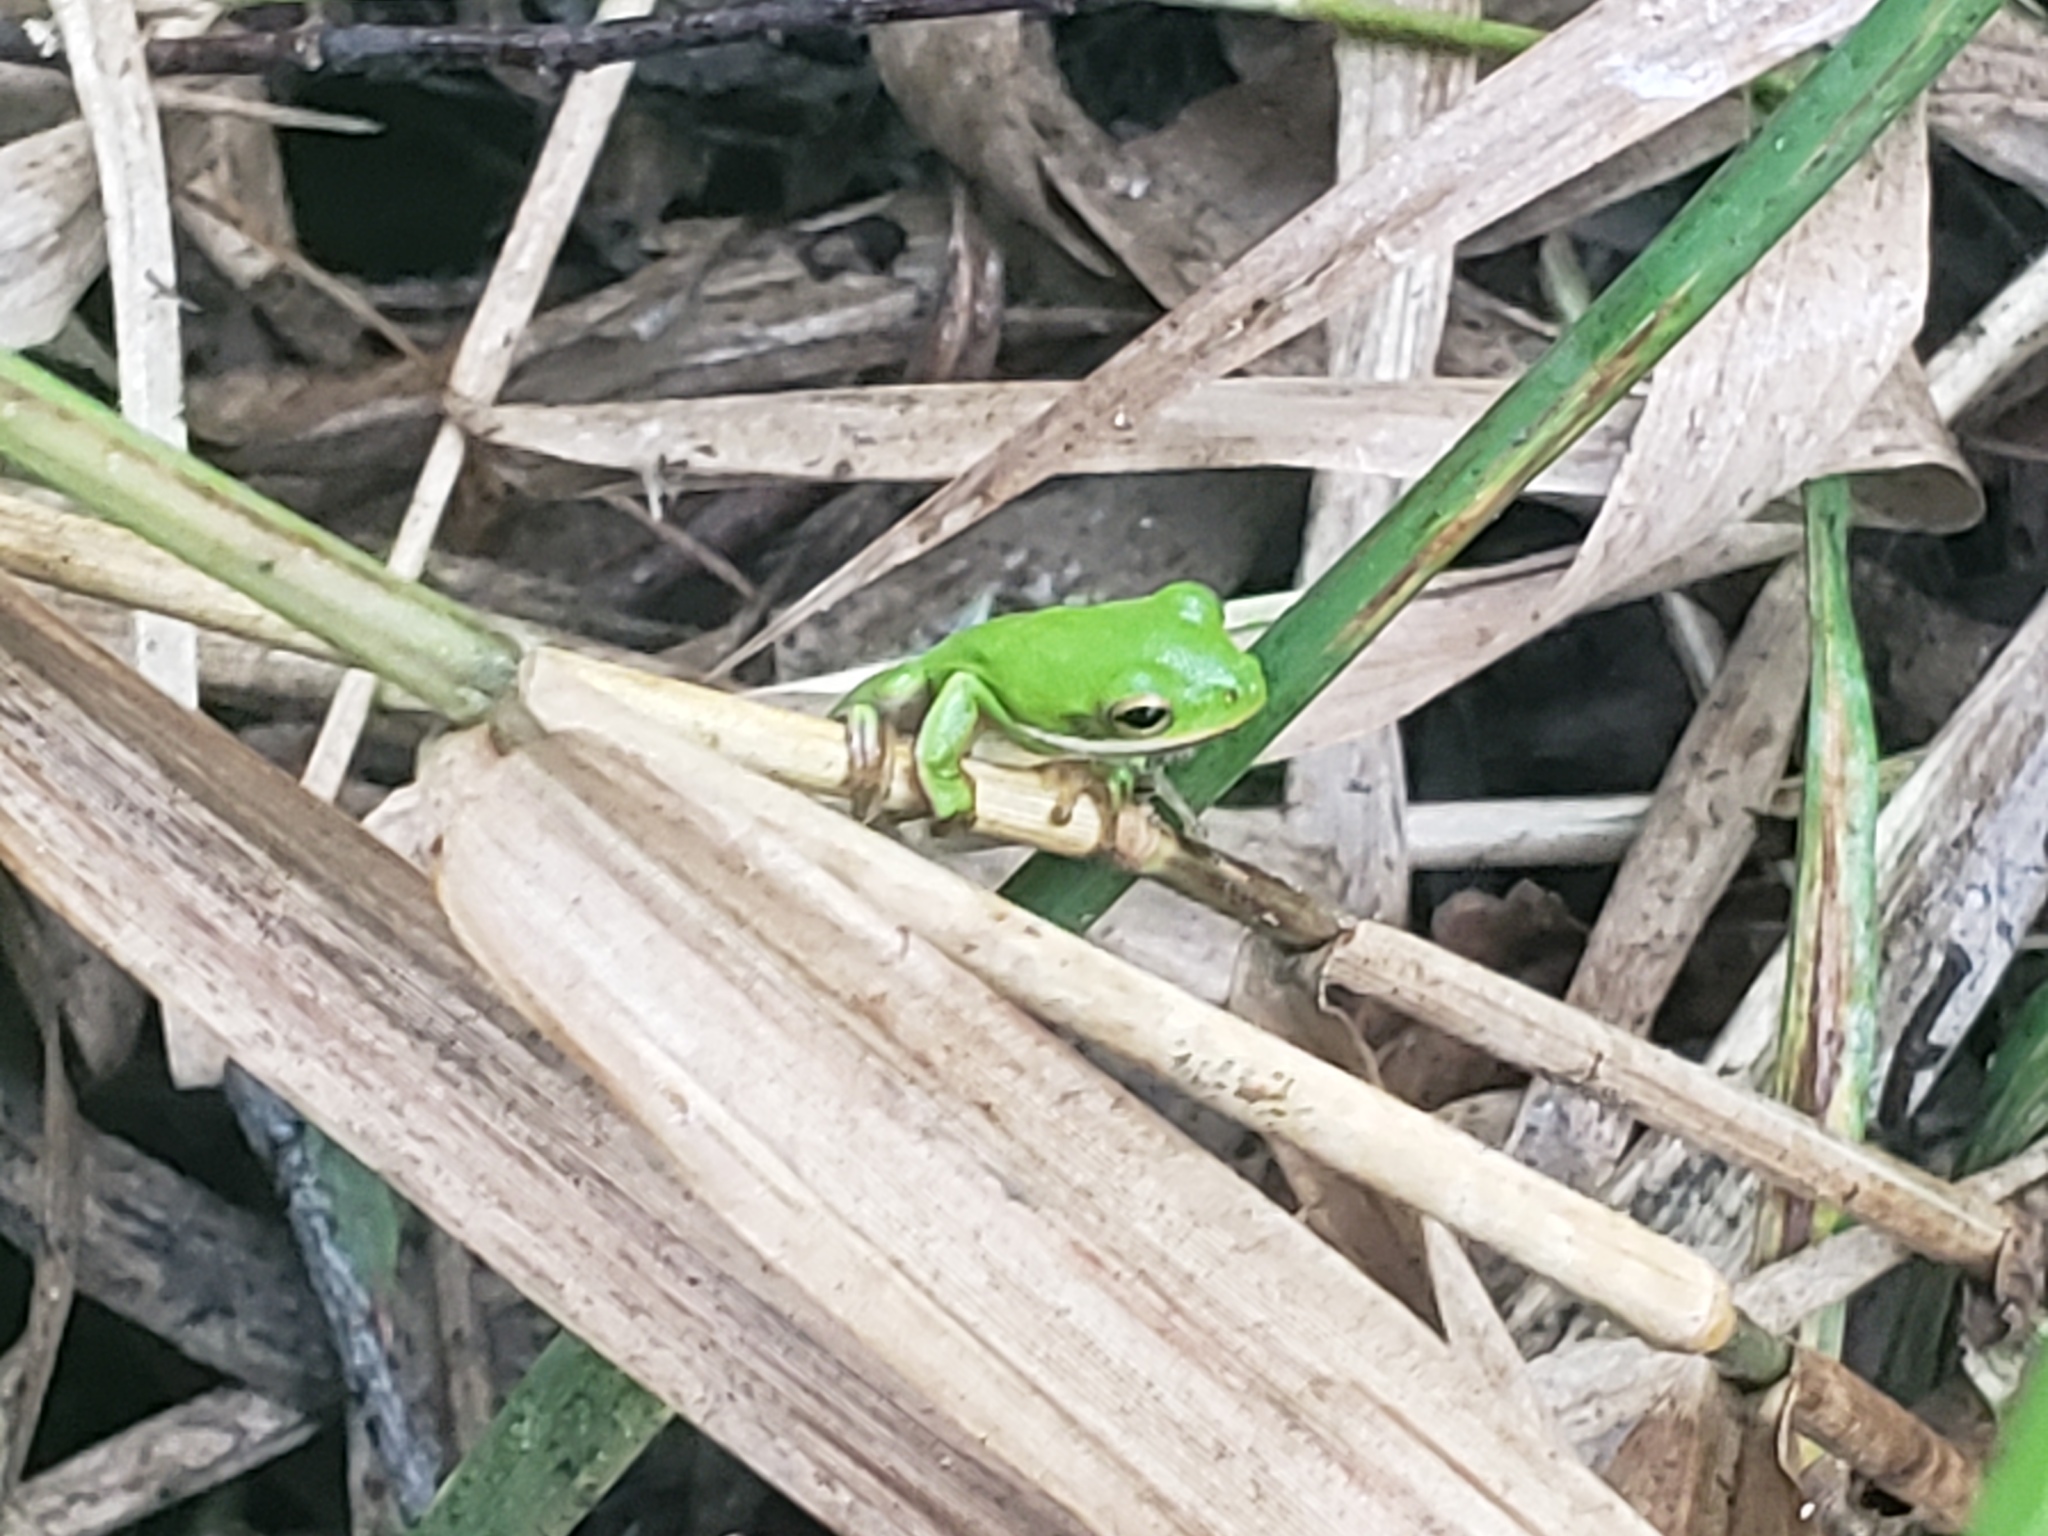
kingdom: Animalia
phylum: Chordata
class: Amphibia
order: Anura
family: Hylidae
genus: Dryophytes
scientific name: Dryophytes cinereus
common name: Green treefrog
